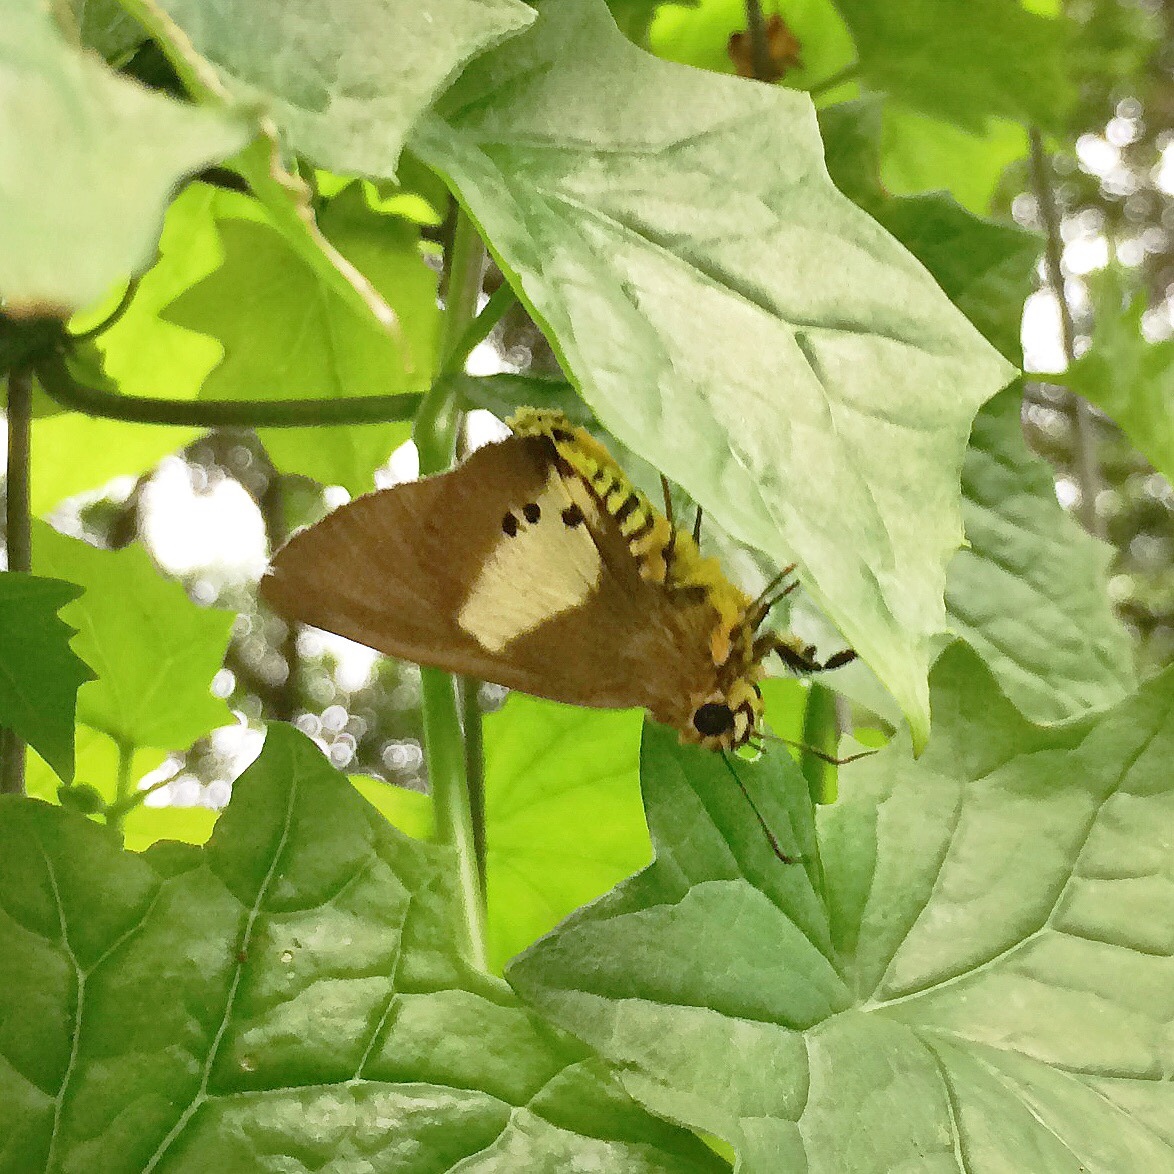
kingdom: Animalia
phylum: Arthropoda
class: Insecta
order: Lepidoptera
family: Hesperiidae
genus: Coeliades
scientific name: Coeliades pisistratus
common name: Two-pip policeman
